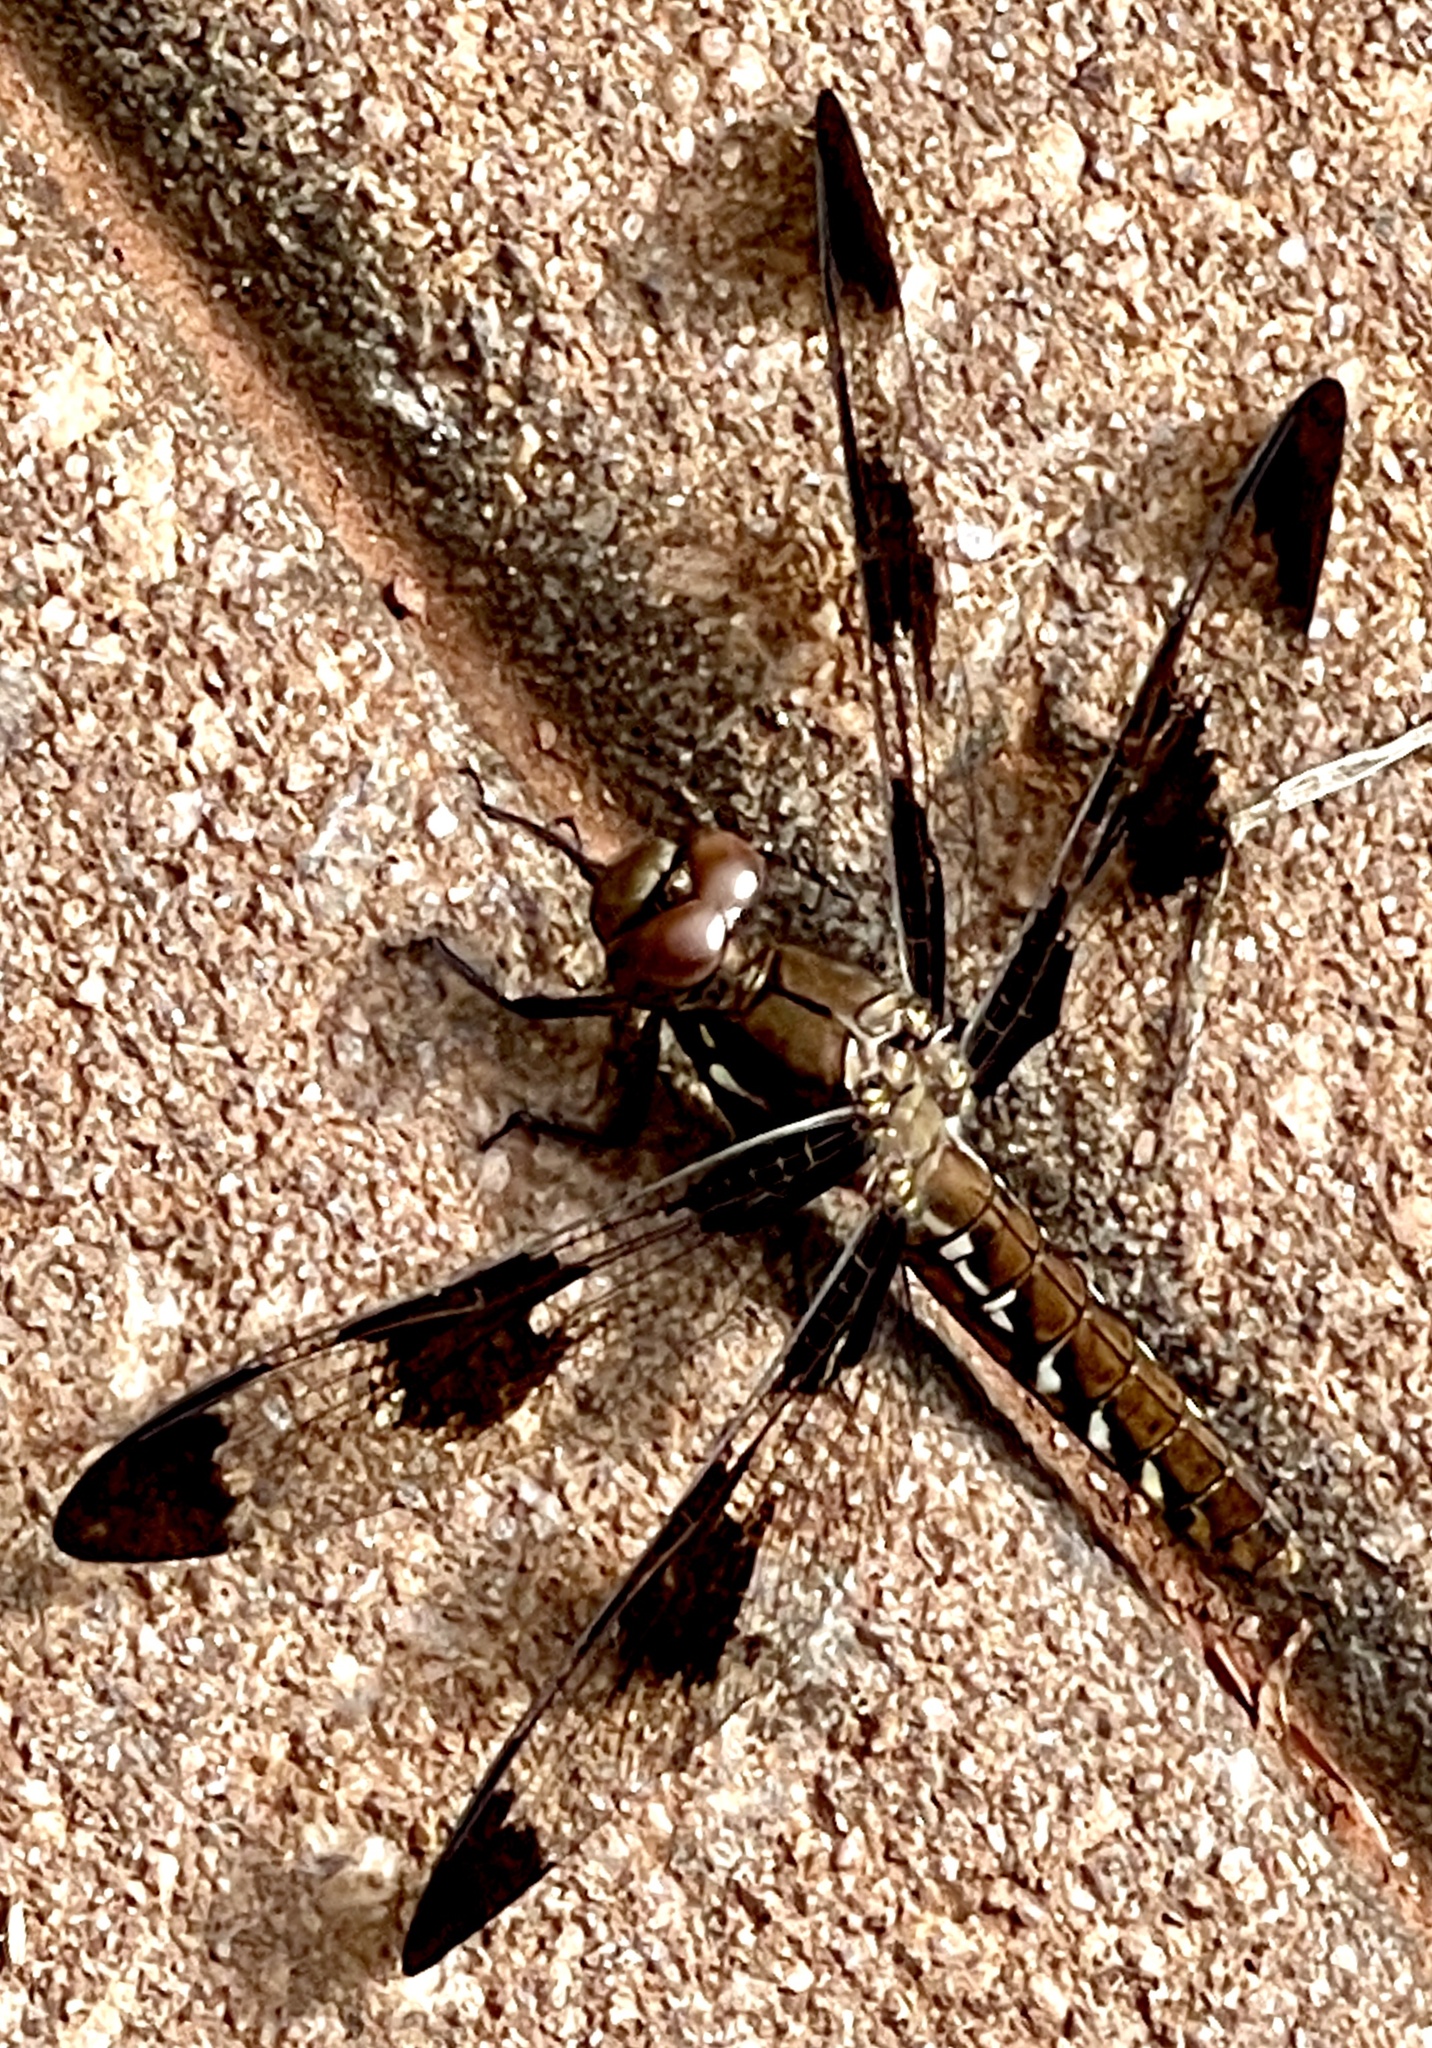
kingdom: Animalia
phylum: Arthropoda
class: Insecta
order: Odonata
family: Libellulidae
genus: Plathemis
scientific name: Plathemis lydia
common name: Common whitetail
